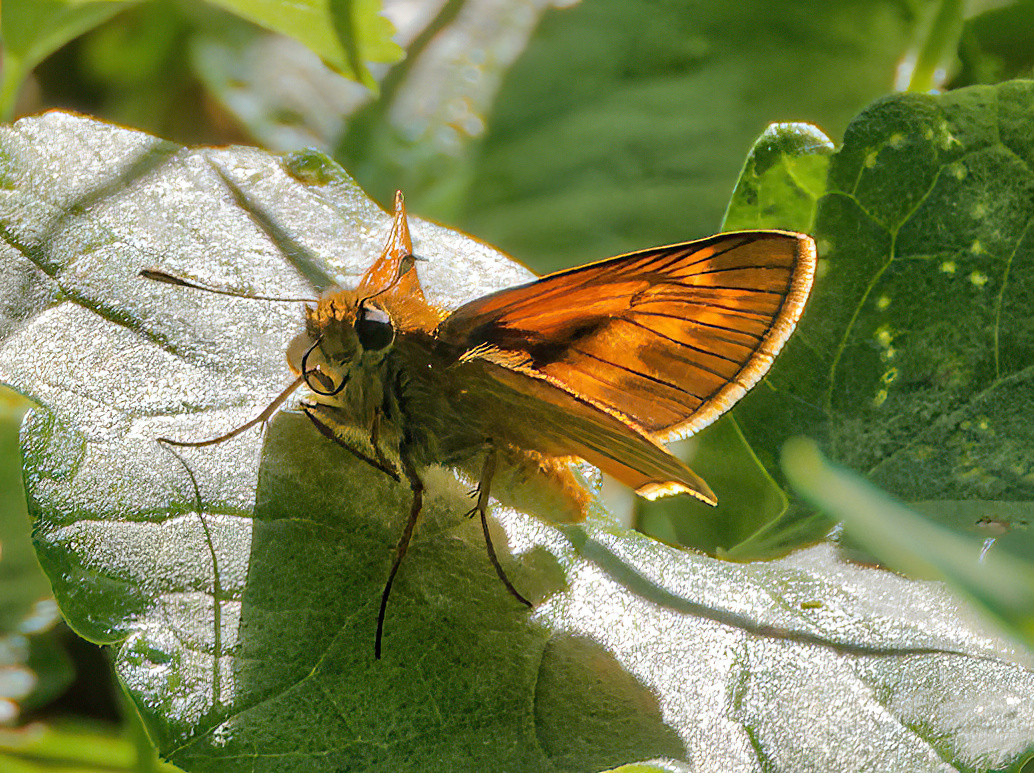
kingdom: Animalia
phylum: Arthropoda
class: Insecta
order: Lepidoptera
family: Hesperiidae
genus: Ochlodes
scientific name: Ochlodes venata
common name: Large skipper
